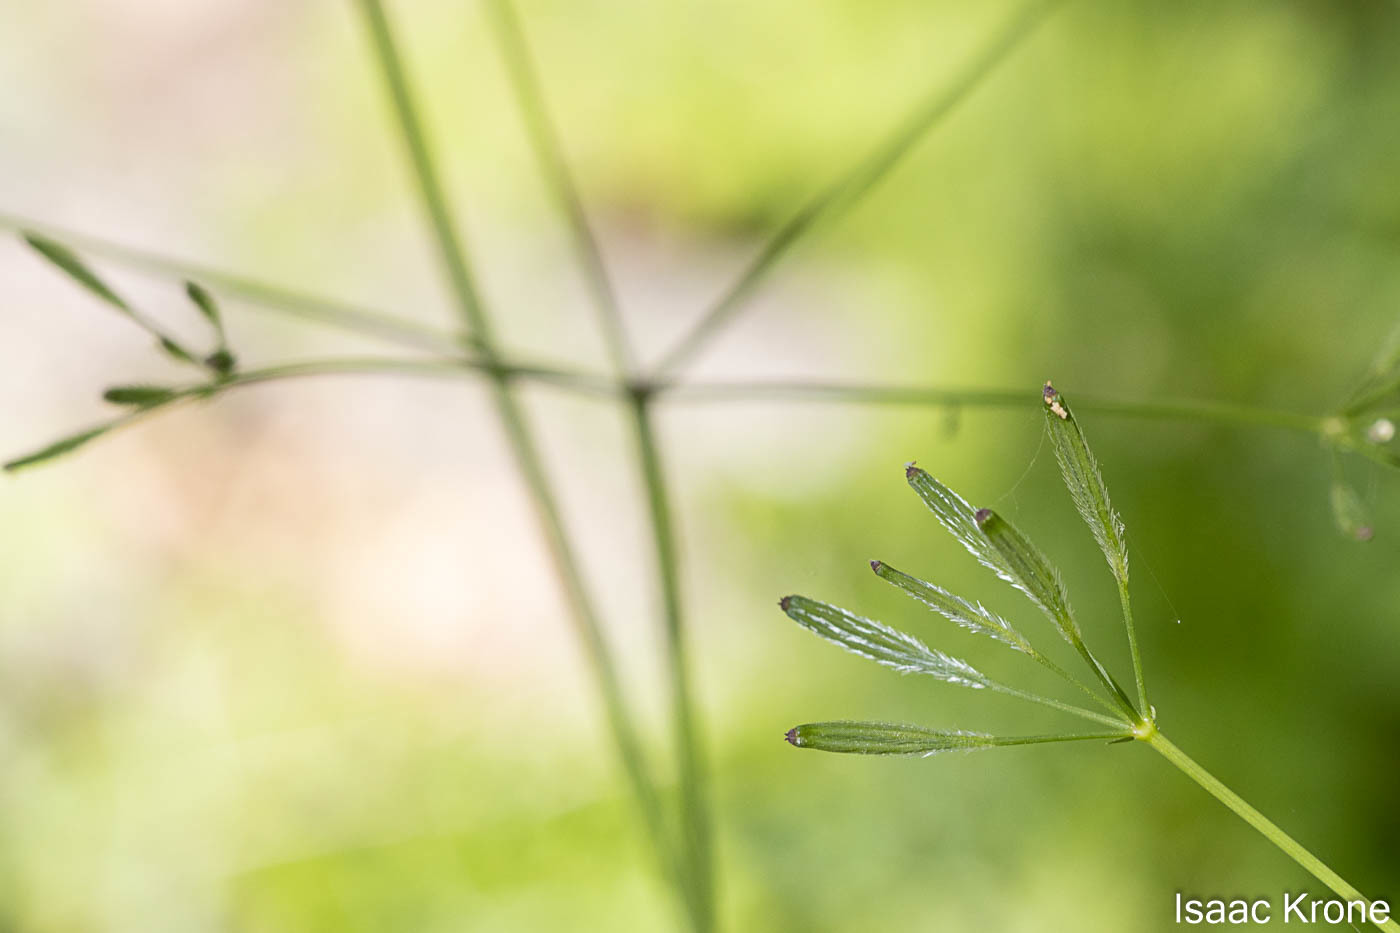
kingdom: Plantae
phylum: Tracheophyta
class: Magnoliopsida
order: Apiales
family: Apiaceae
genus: Osmorhiza
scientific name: Osmorhiza berteroi
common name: Mountain sweet cicely
